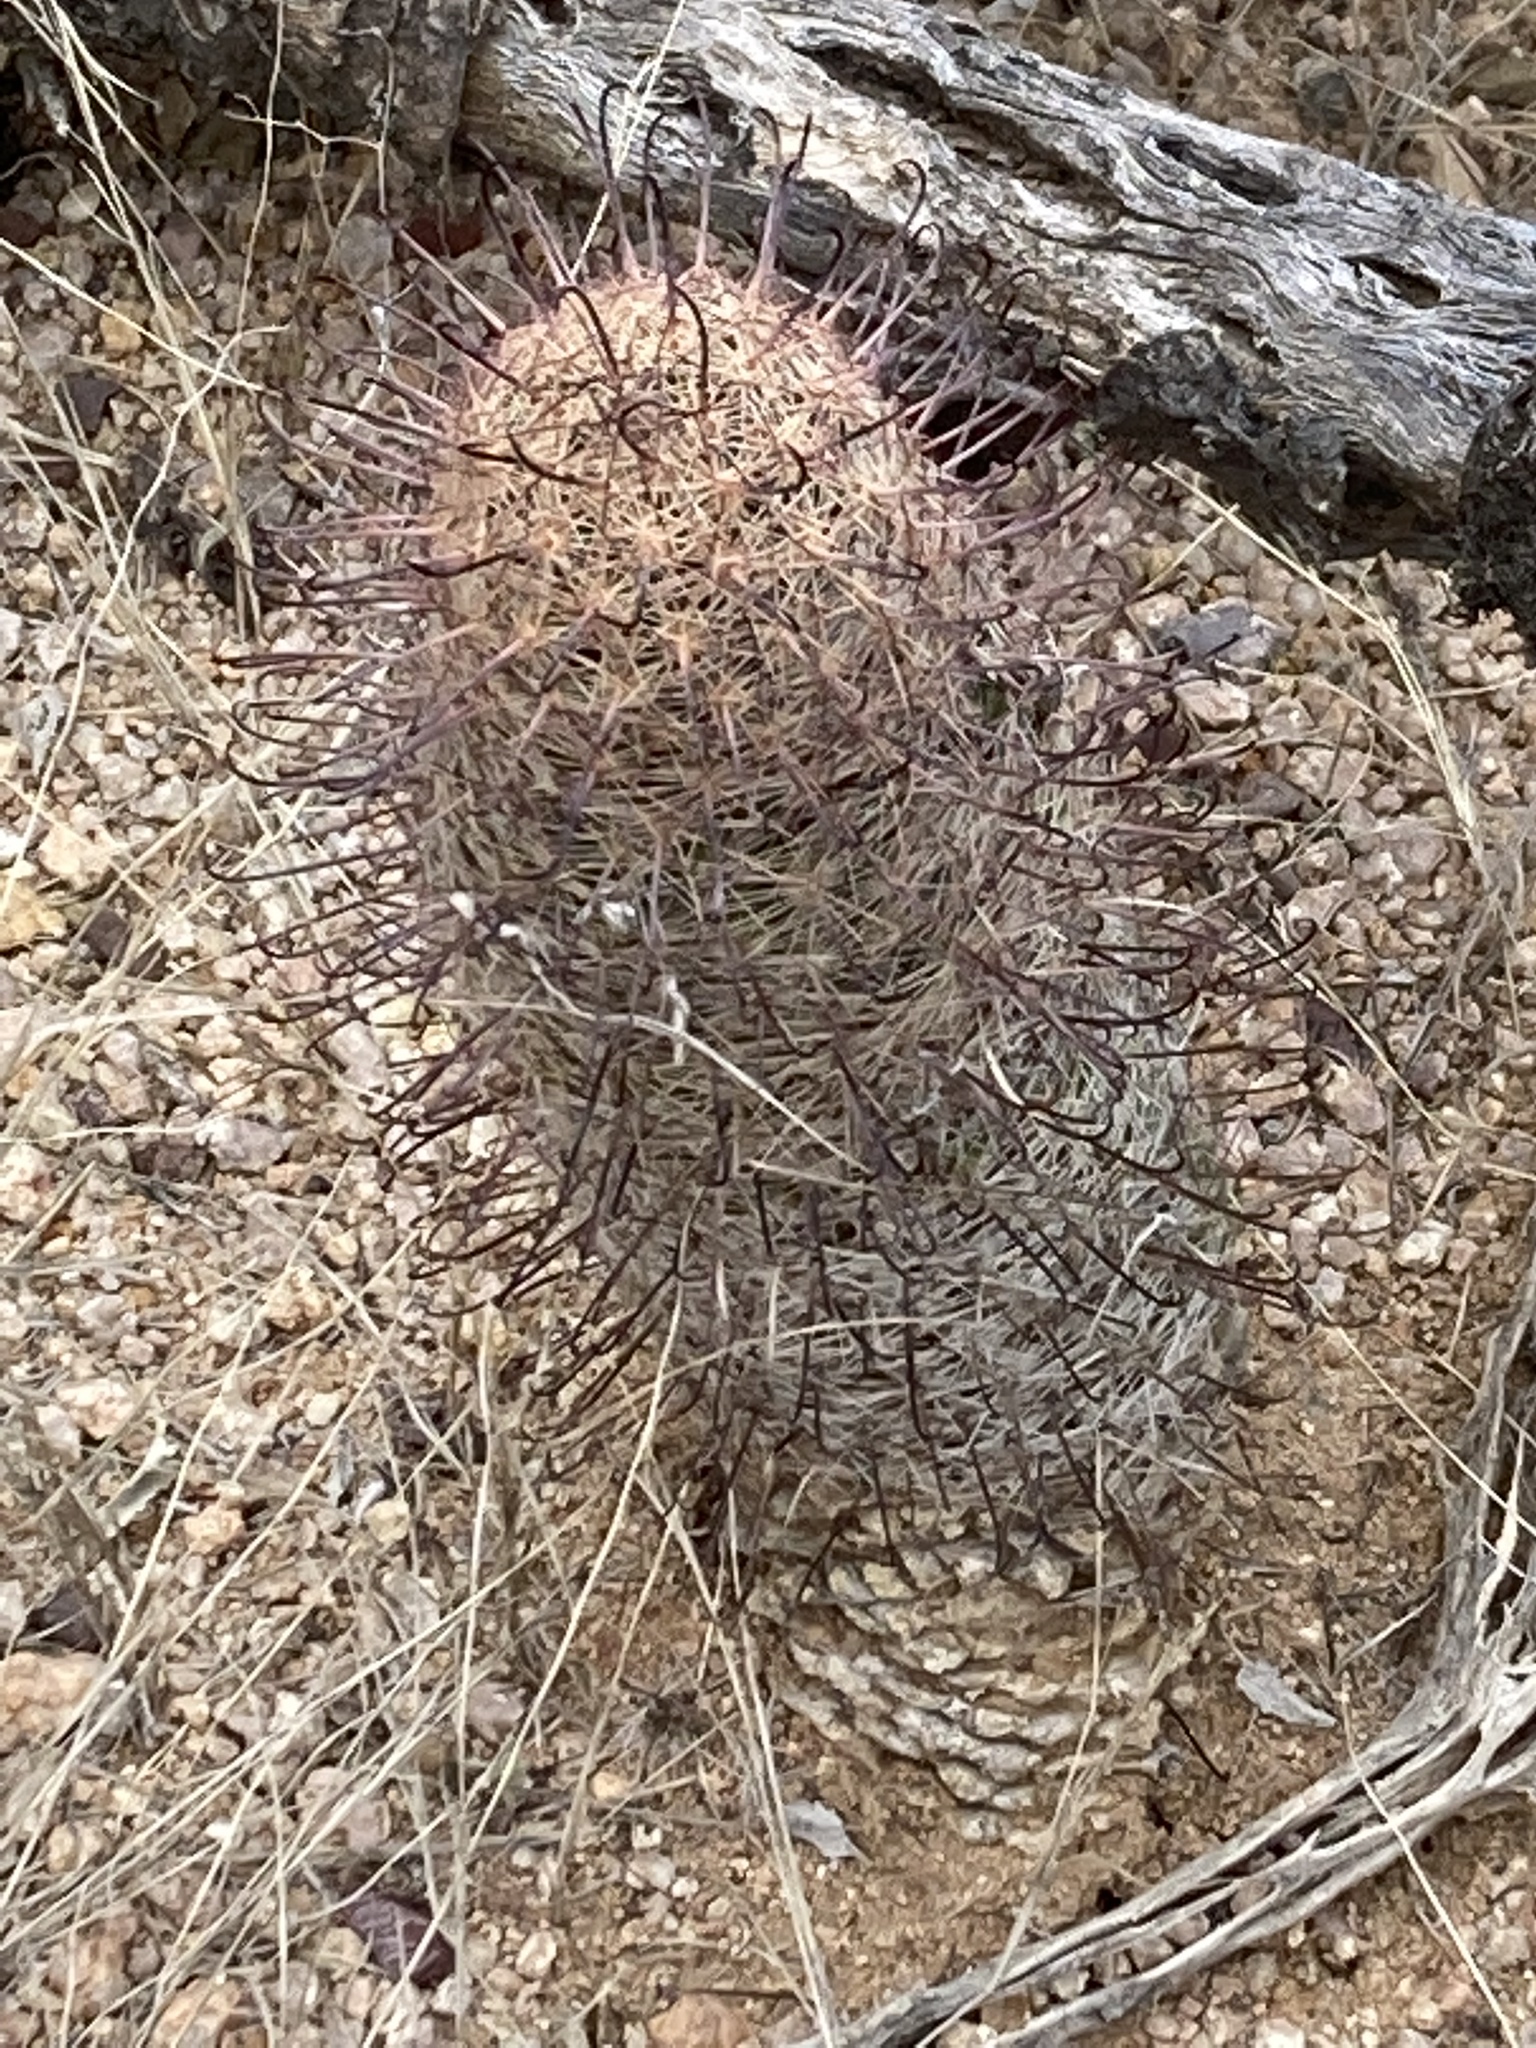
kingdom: Plantae
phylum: Tracheophyta
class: Magnoliopsida
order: Caryophyllales
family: Cactaceae
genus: Cochemiea
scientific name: Cochemiea grahamii
